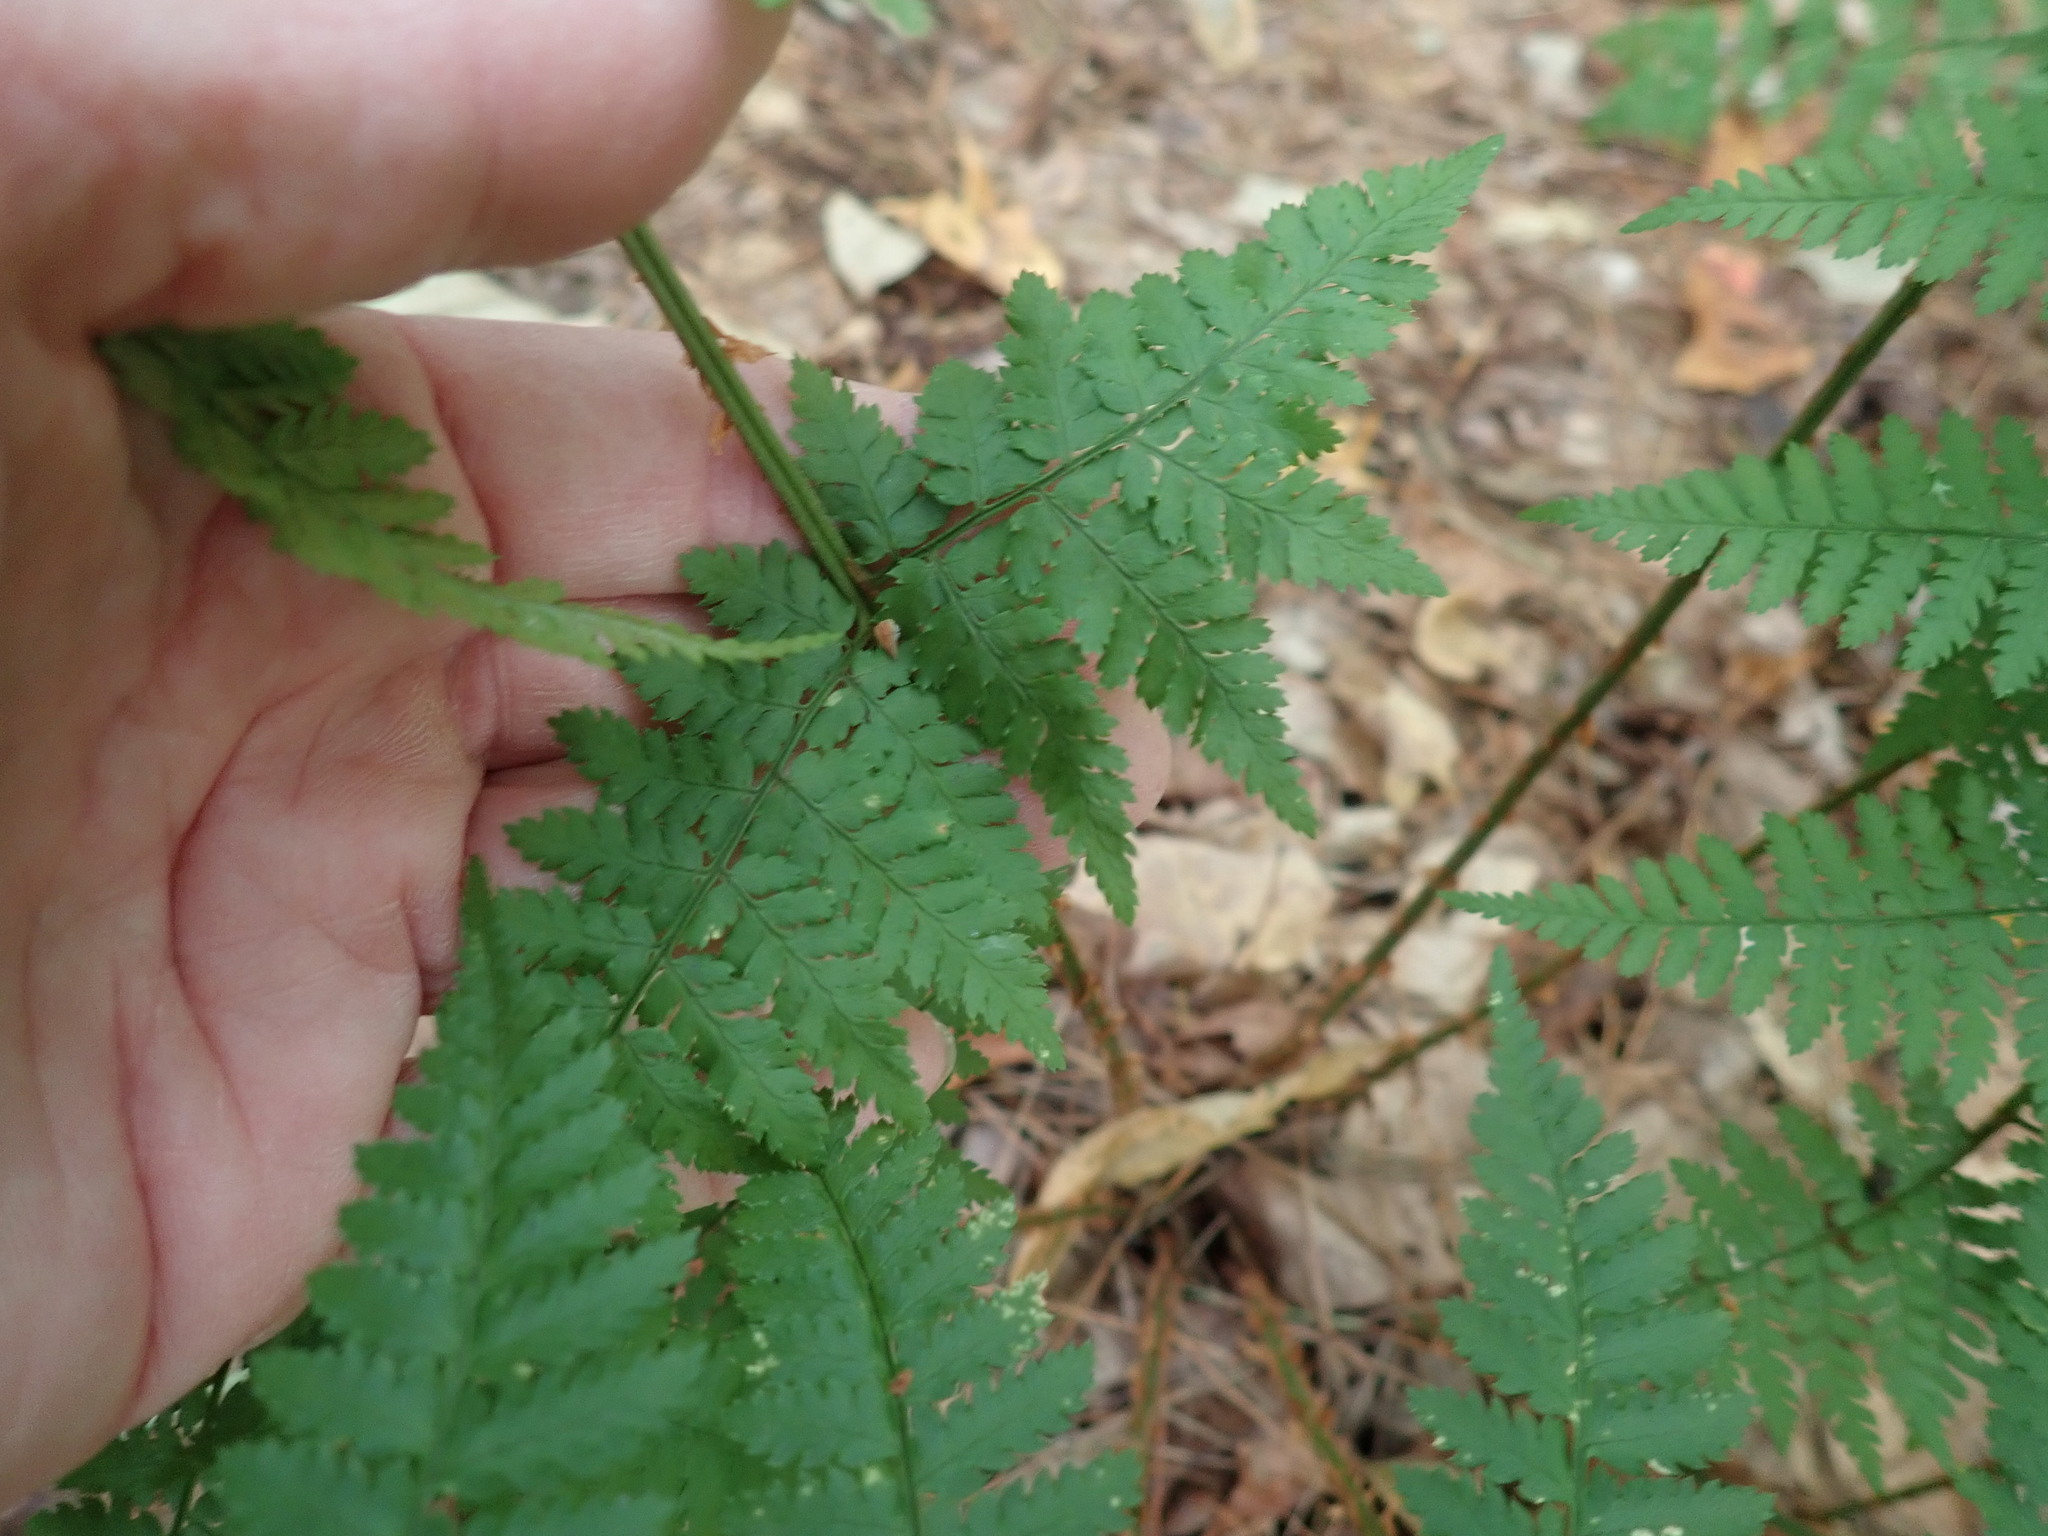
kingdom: Plantae
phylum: Tracheophyta
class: Polypodiopsida
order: Polypodiales
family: Dryopteridaceae
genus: Dryopteris
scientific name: Dryopteris intermedia
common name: Evergreen wood fern
